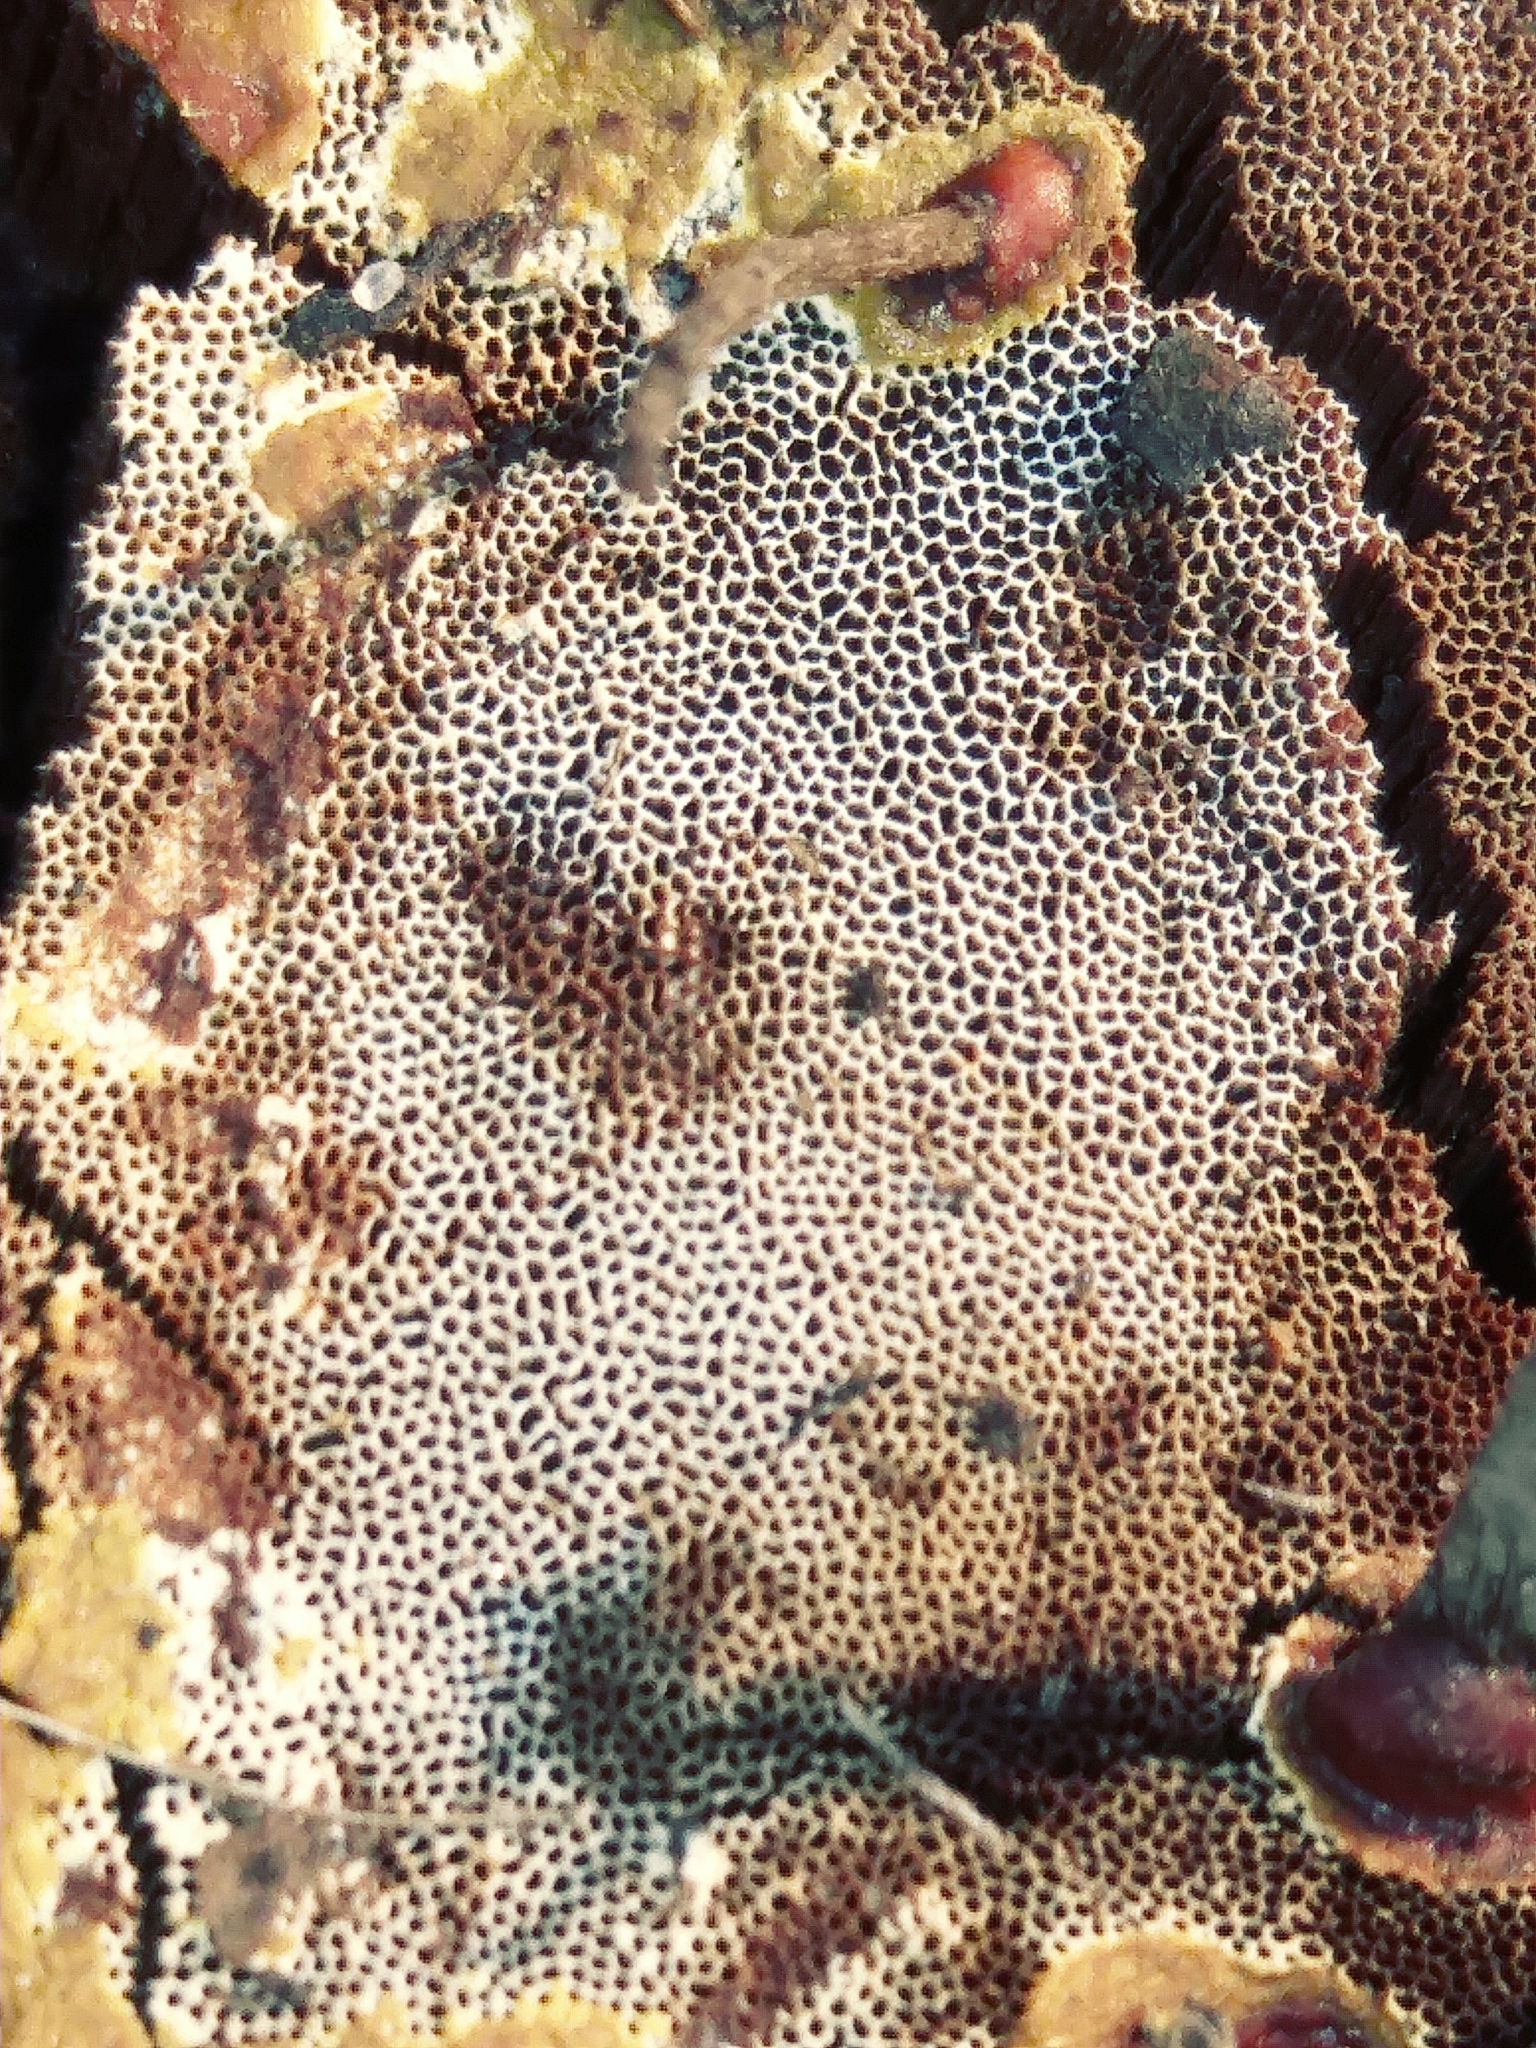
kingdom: Fungi
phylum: Basidiomycota
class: Agaricomycetes
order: Polyporales
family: Polyporaceae
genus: Ganoderma
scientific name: Ganoderma resinaceum
